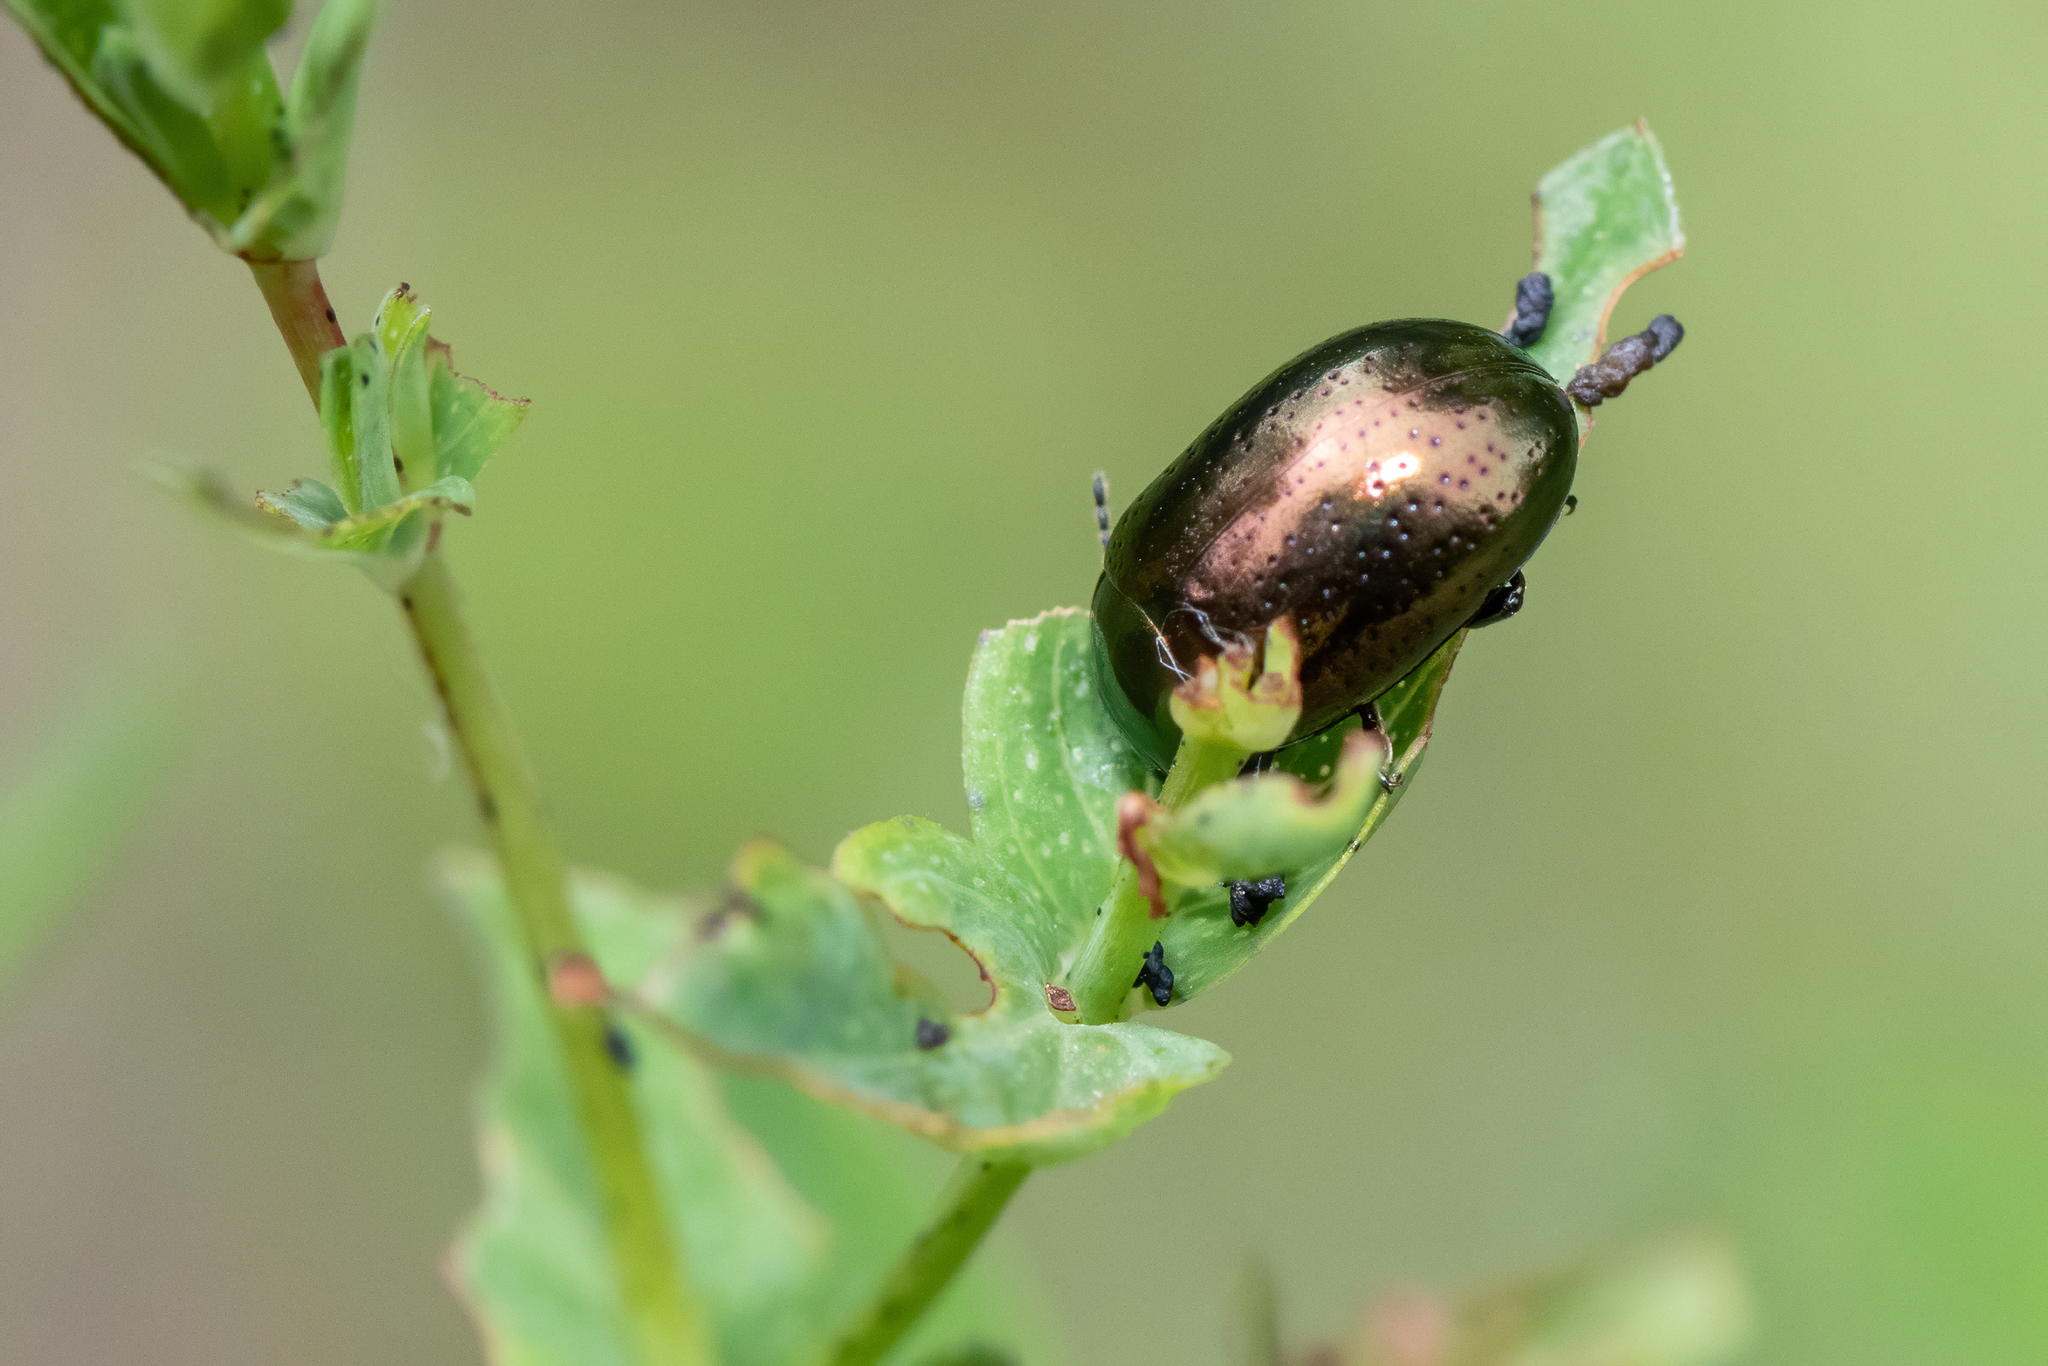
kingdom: Animalia
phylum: Arthropoda
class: Insecta
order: Coleoptera
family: Chrysomelidae
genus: Chrysolina
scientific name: Chrysolina hyperici
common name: St. johnswort beetle
